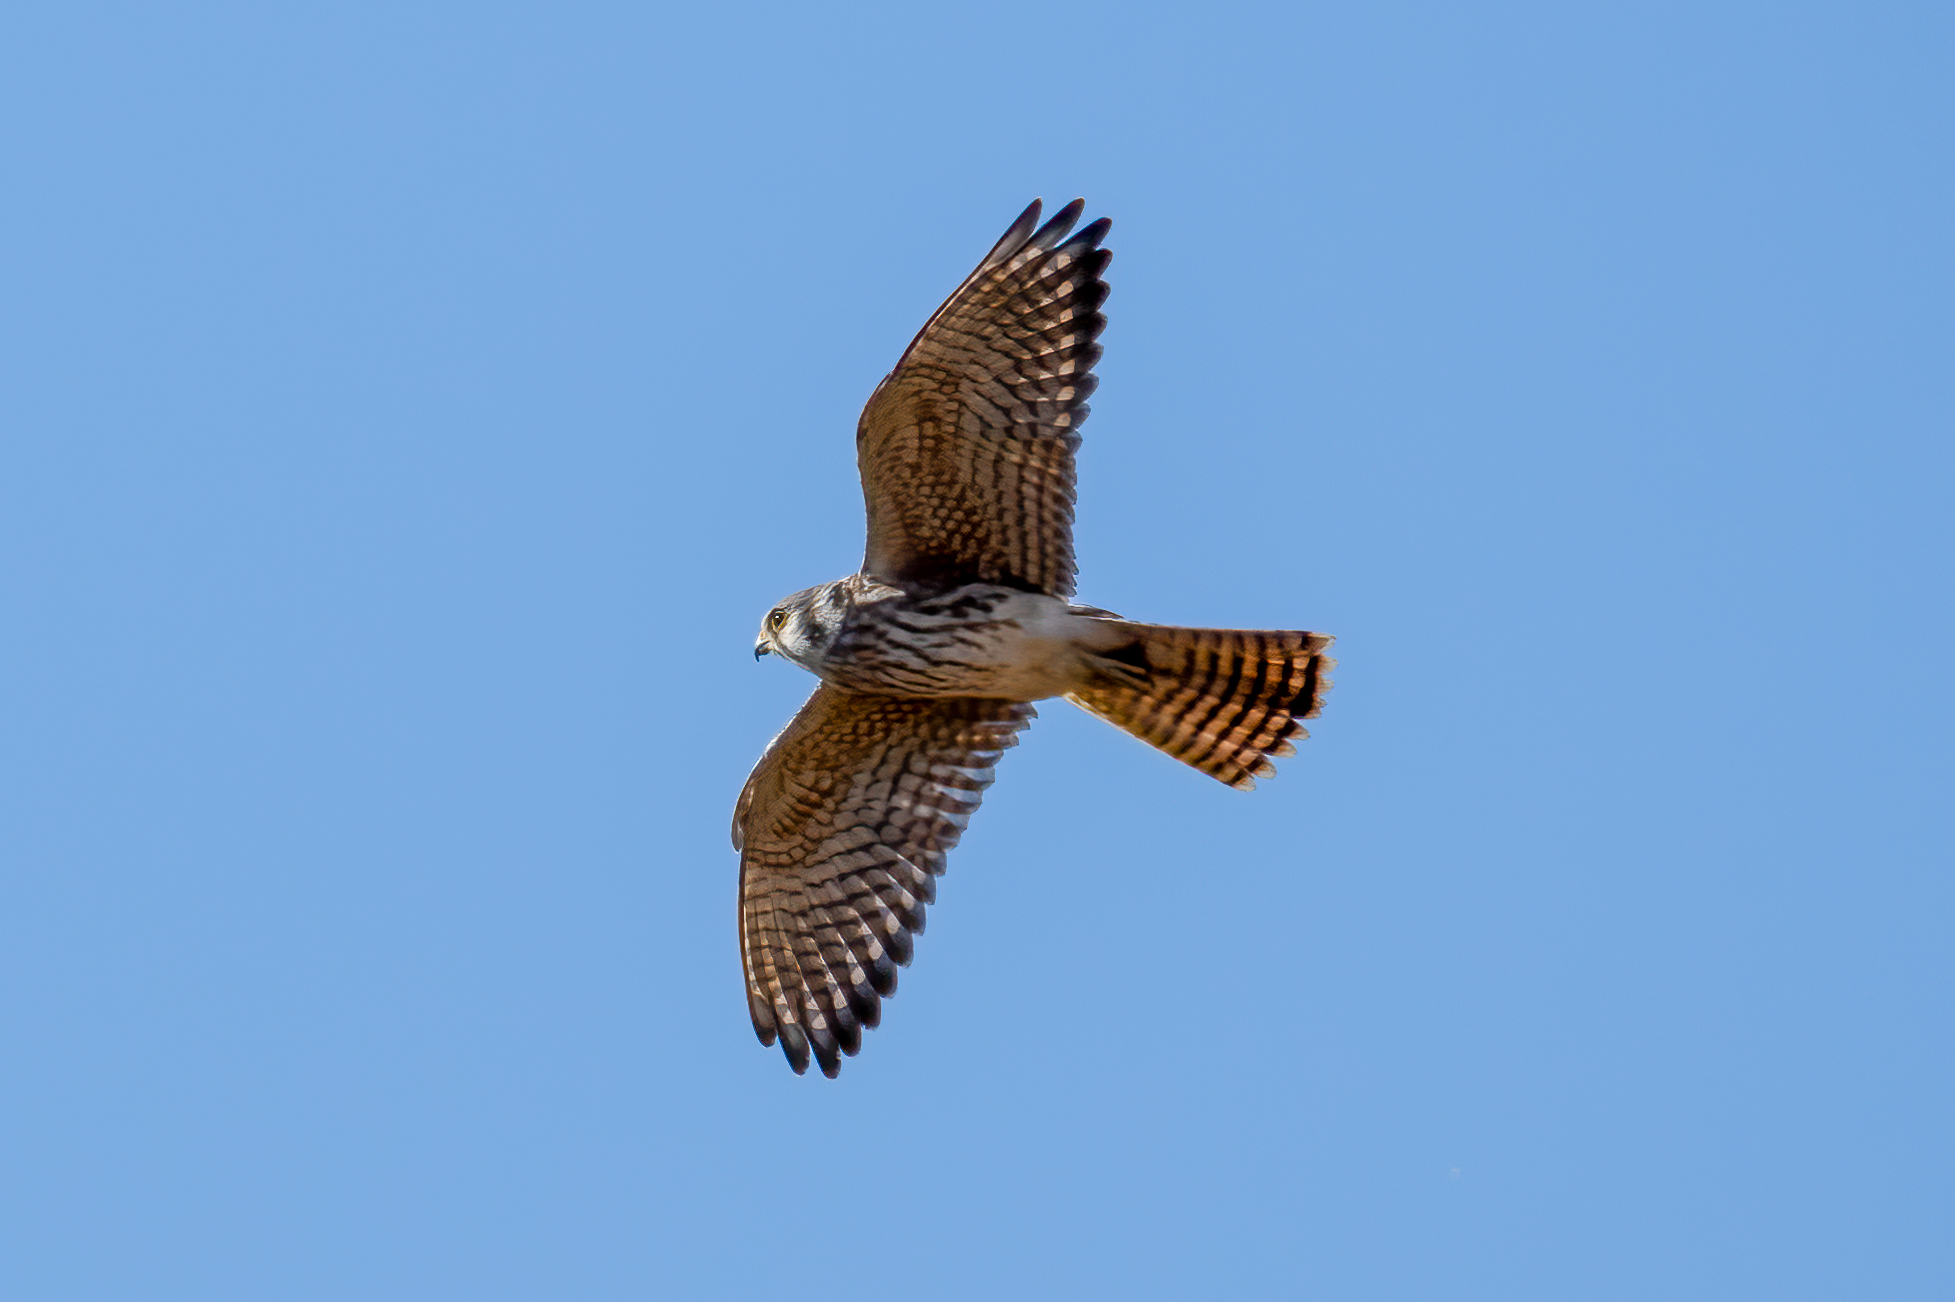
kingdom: Animalia
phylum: Chordata
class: Aves
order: Falconiformes
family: Falconidae
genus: Falco
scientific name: Falco sparverius
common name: American kestrel
